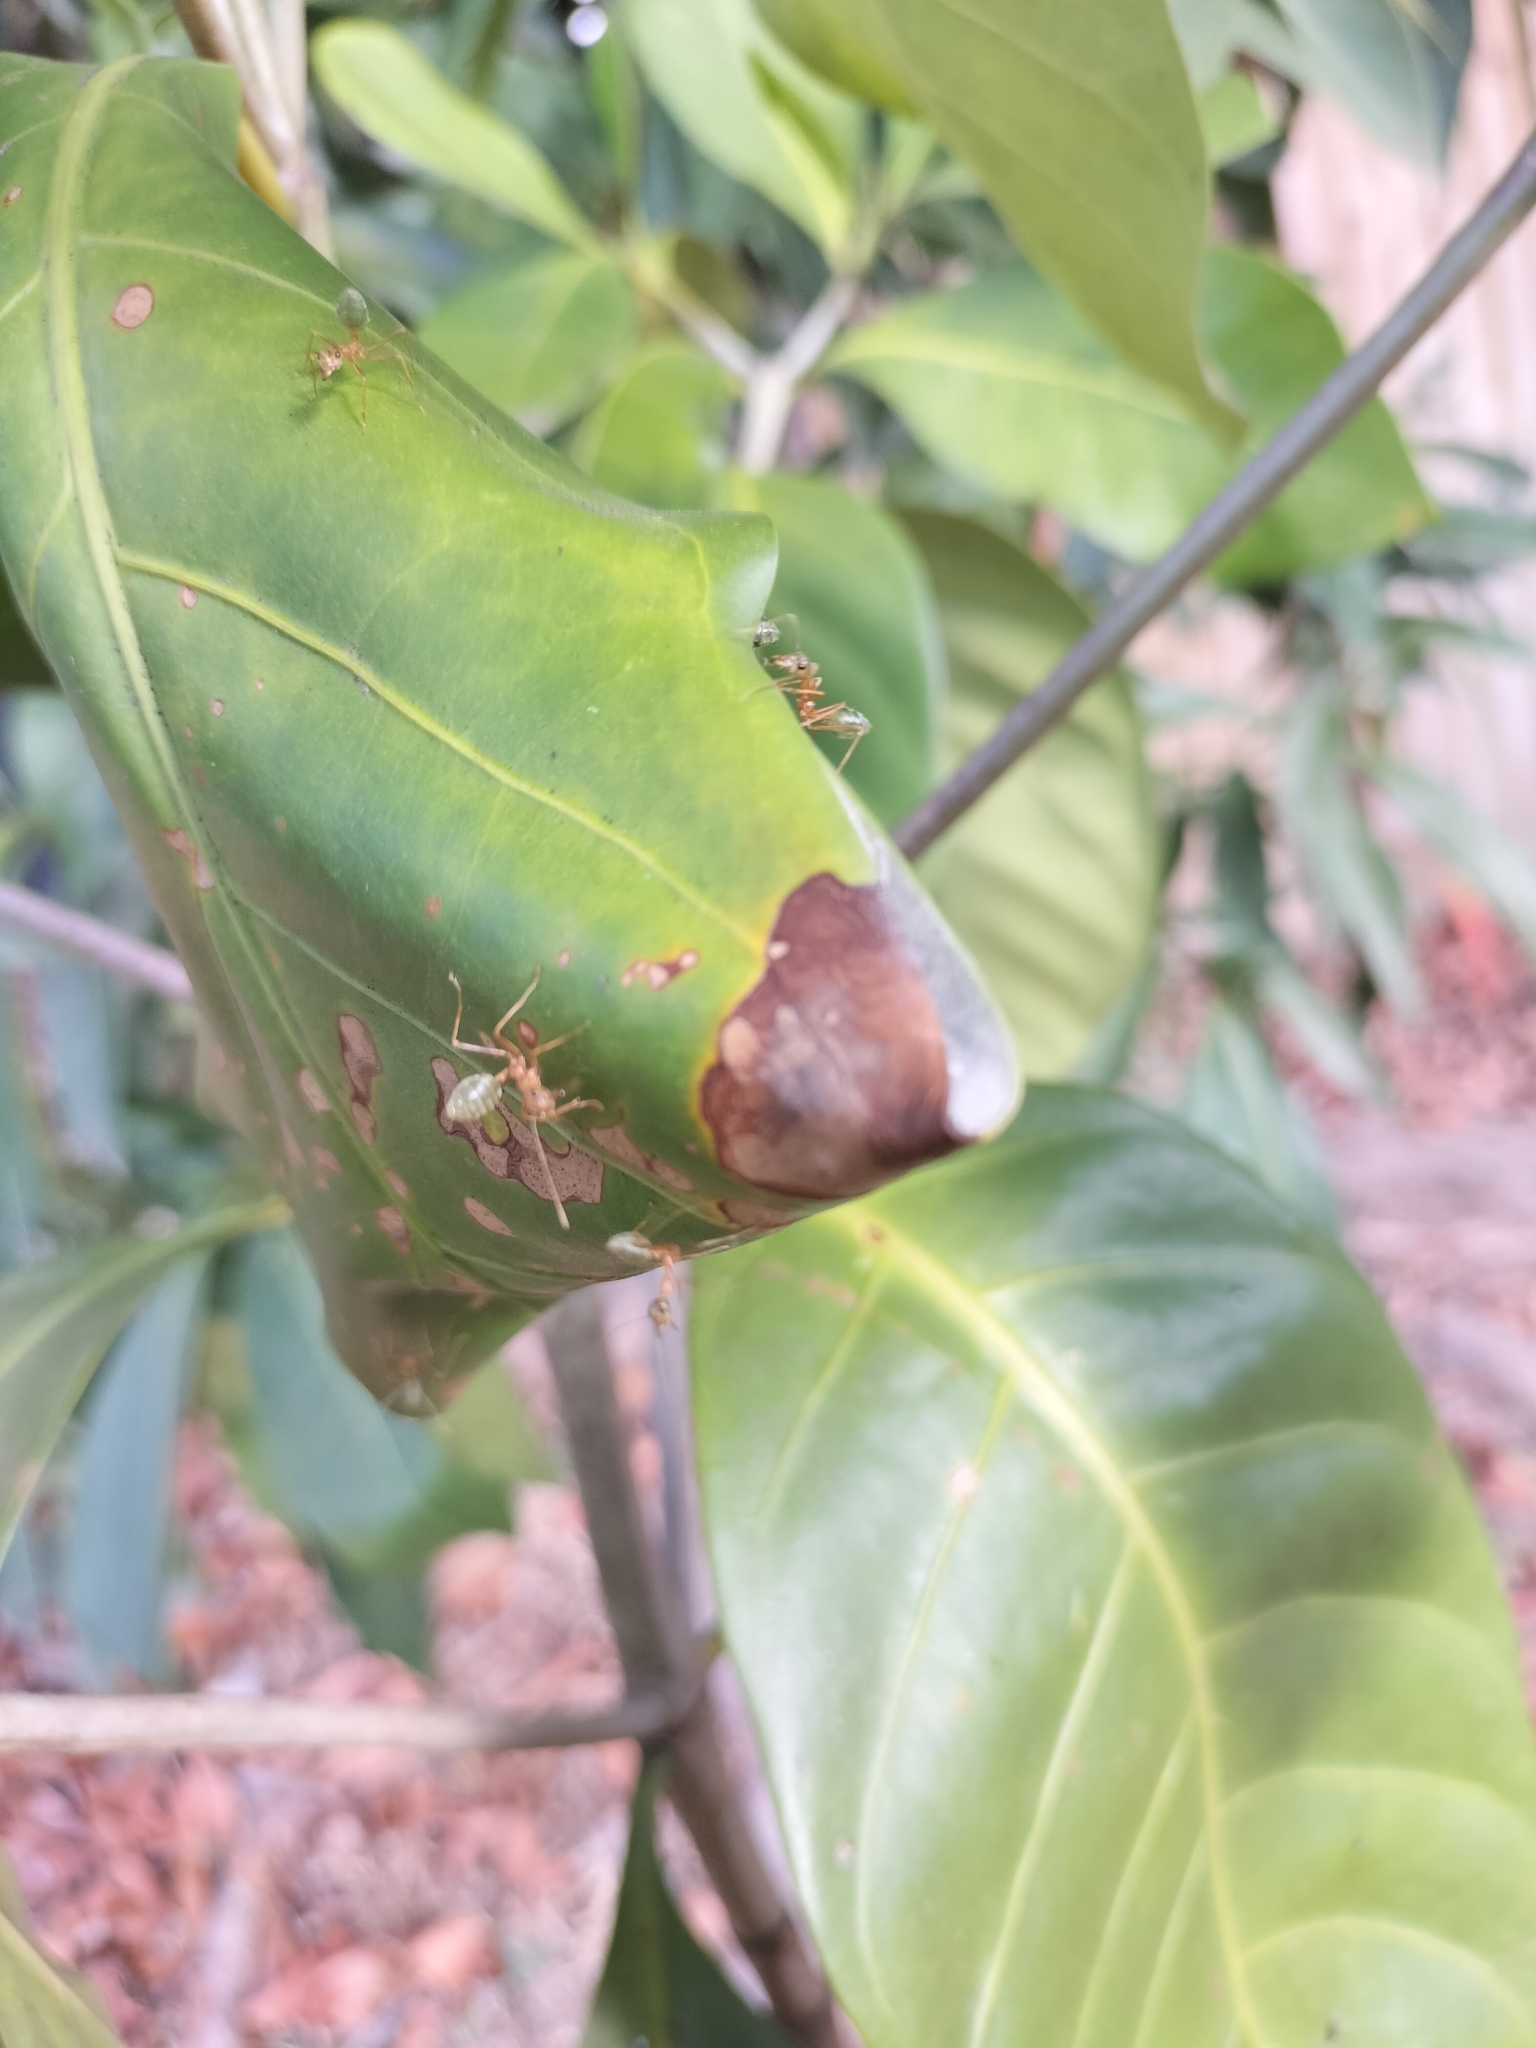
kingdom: Animalia
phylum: Arthropoda
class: Insecta
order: Hymenoptera
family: Formicidae
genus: Oecophylla
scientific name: Oecophylla smaragdina
